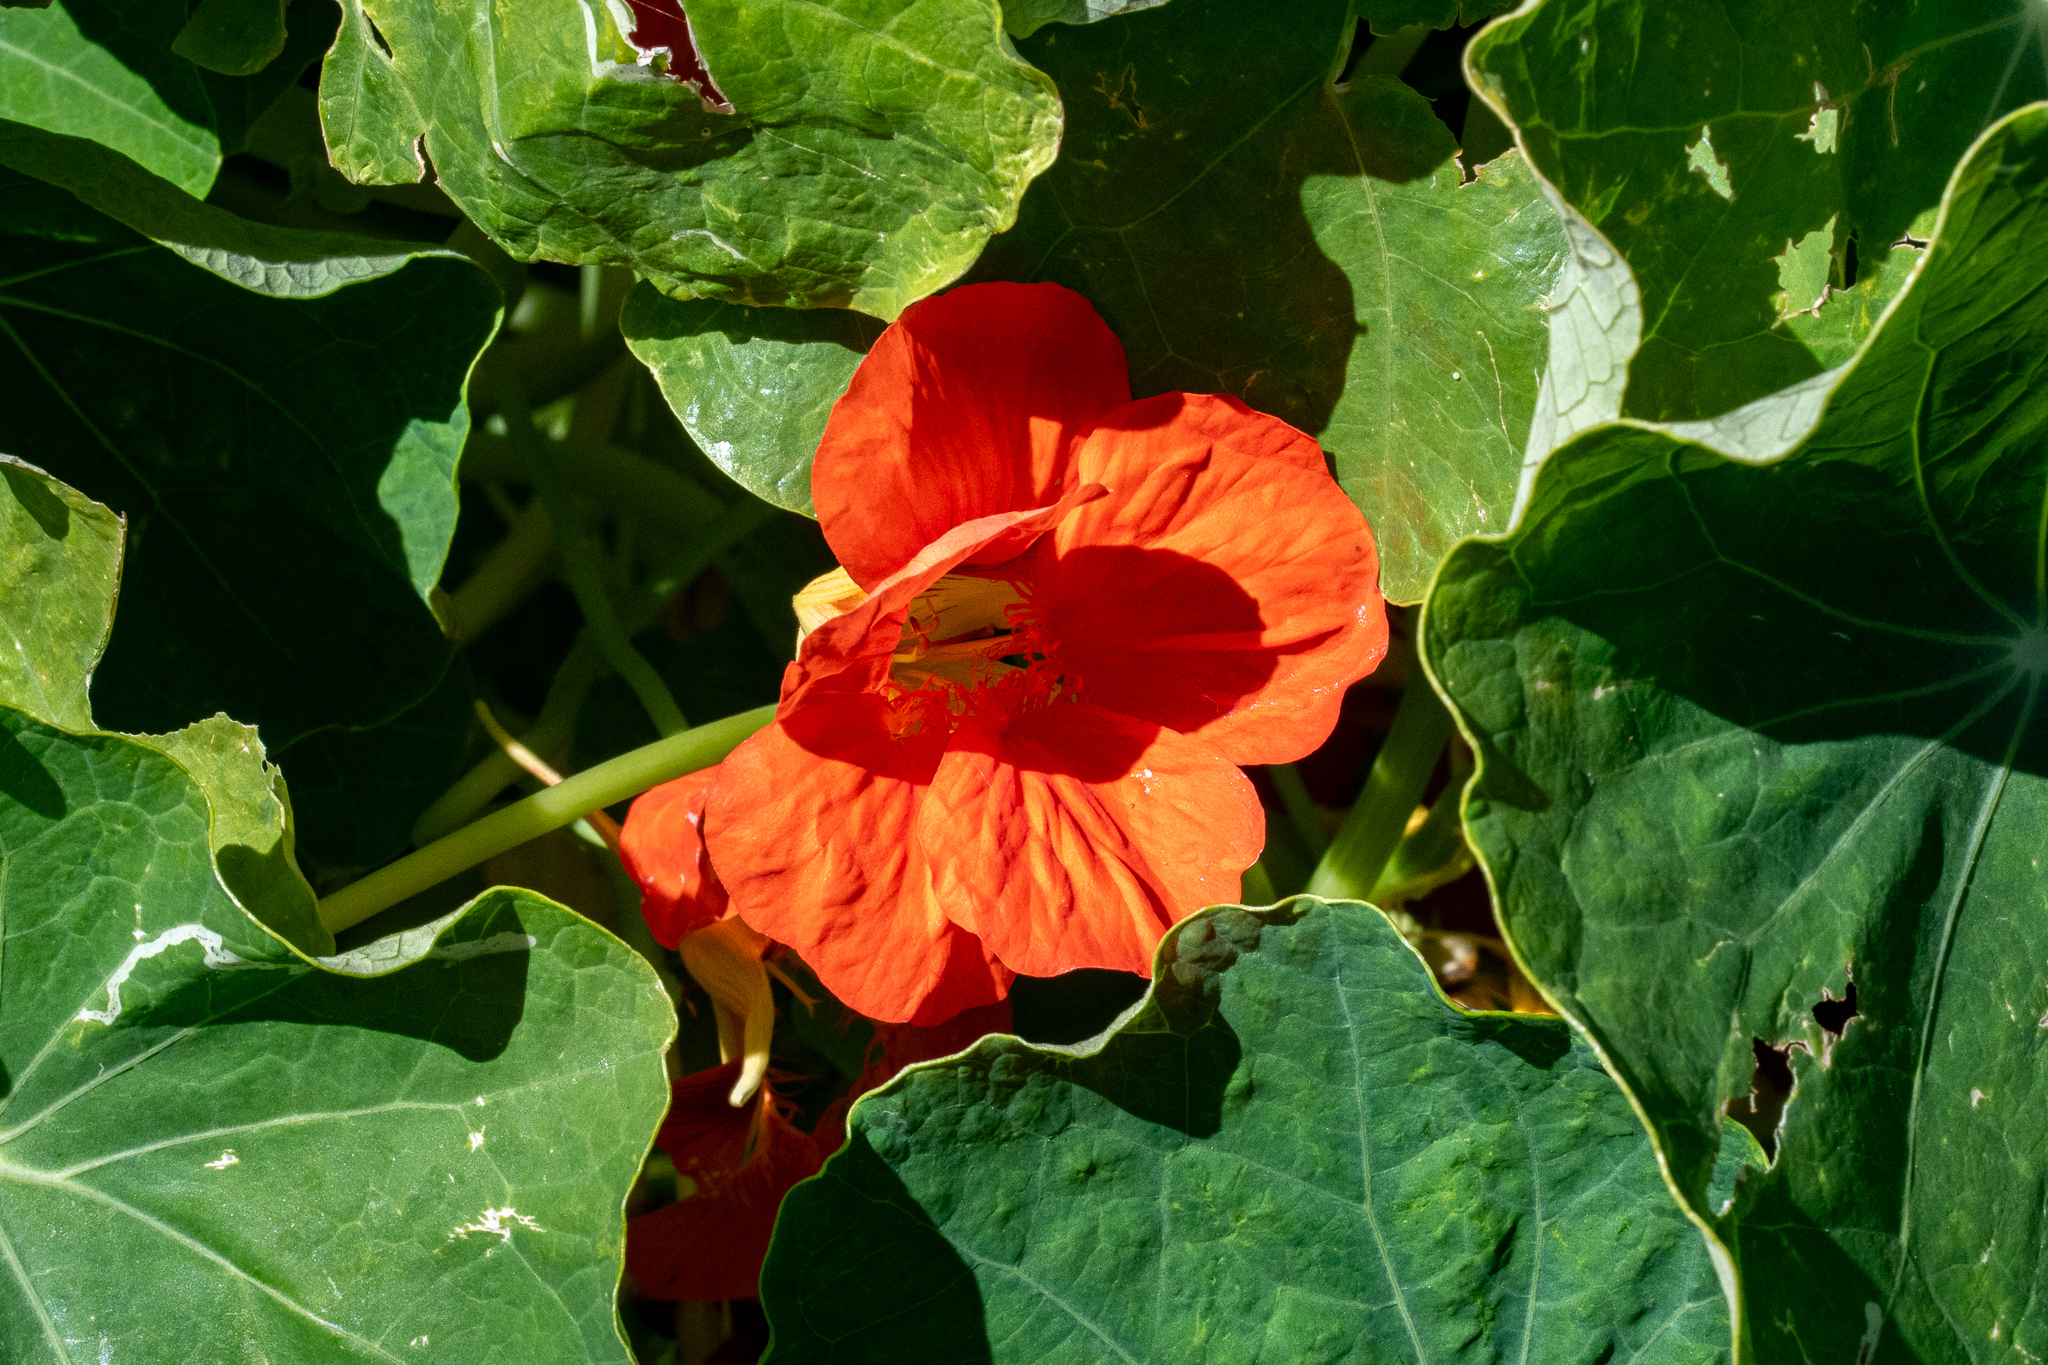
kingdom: Plantae
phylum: Tracheophyta
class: Magnoliopsida
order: Brassicales
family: Tropaeolaceae
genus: Tropaeolum
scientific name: Tropaeolum majus
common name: Nasturtium
